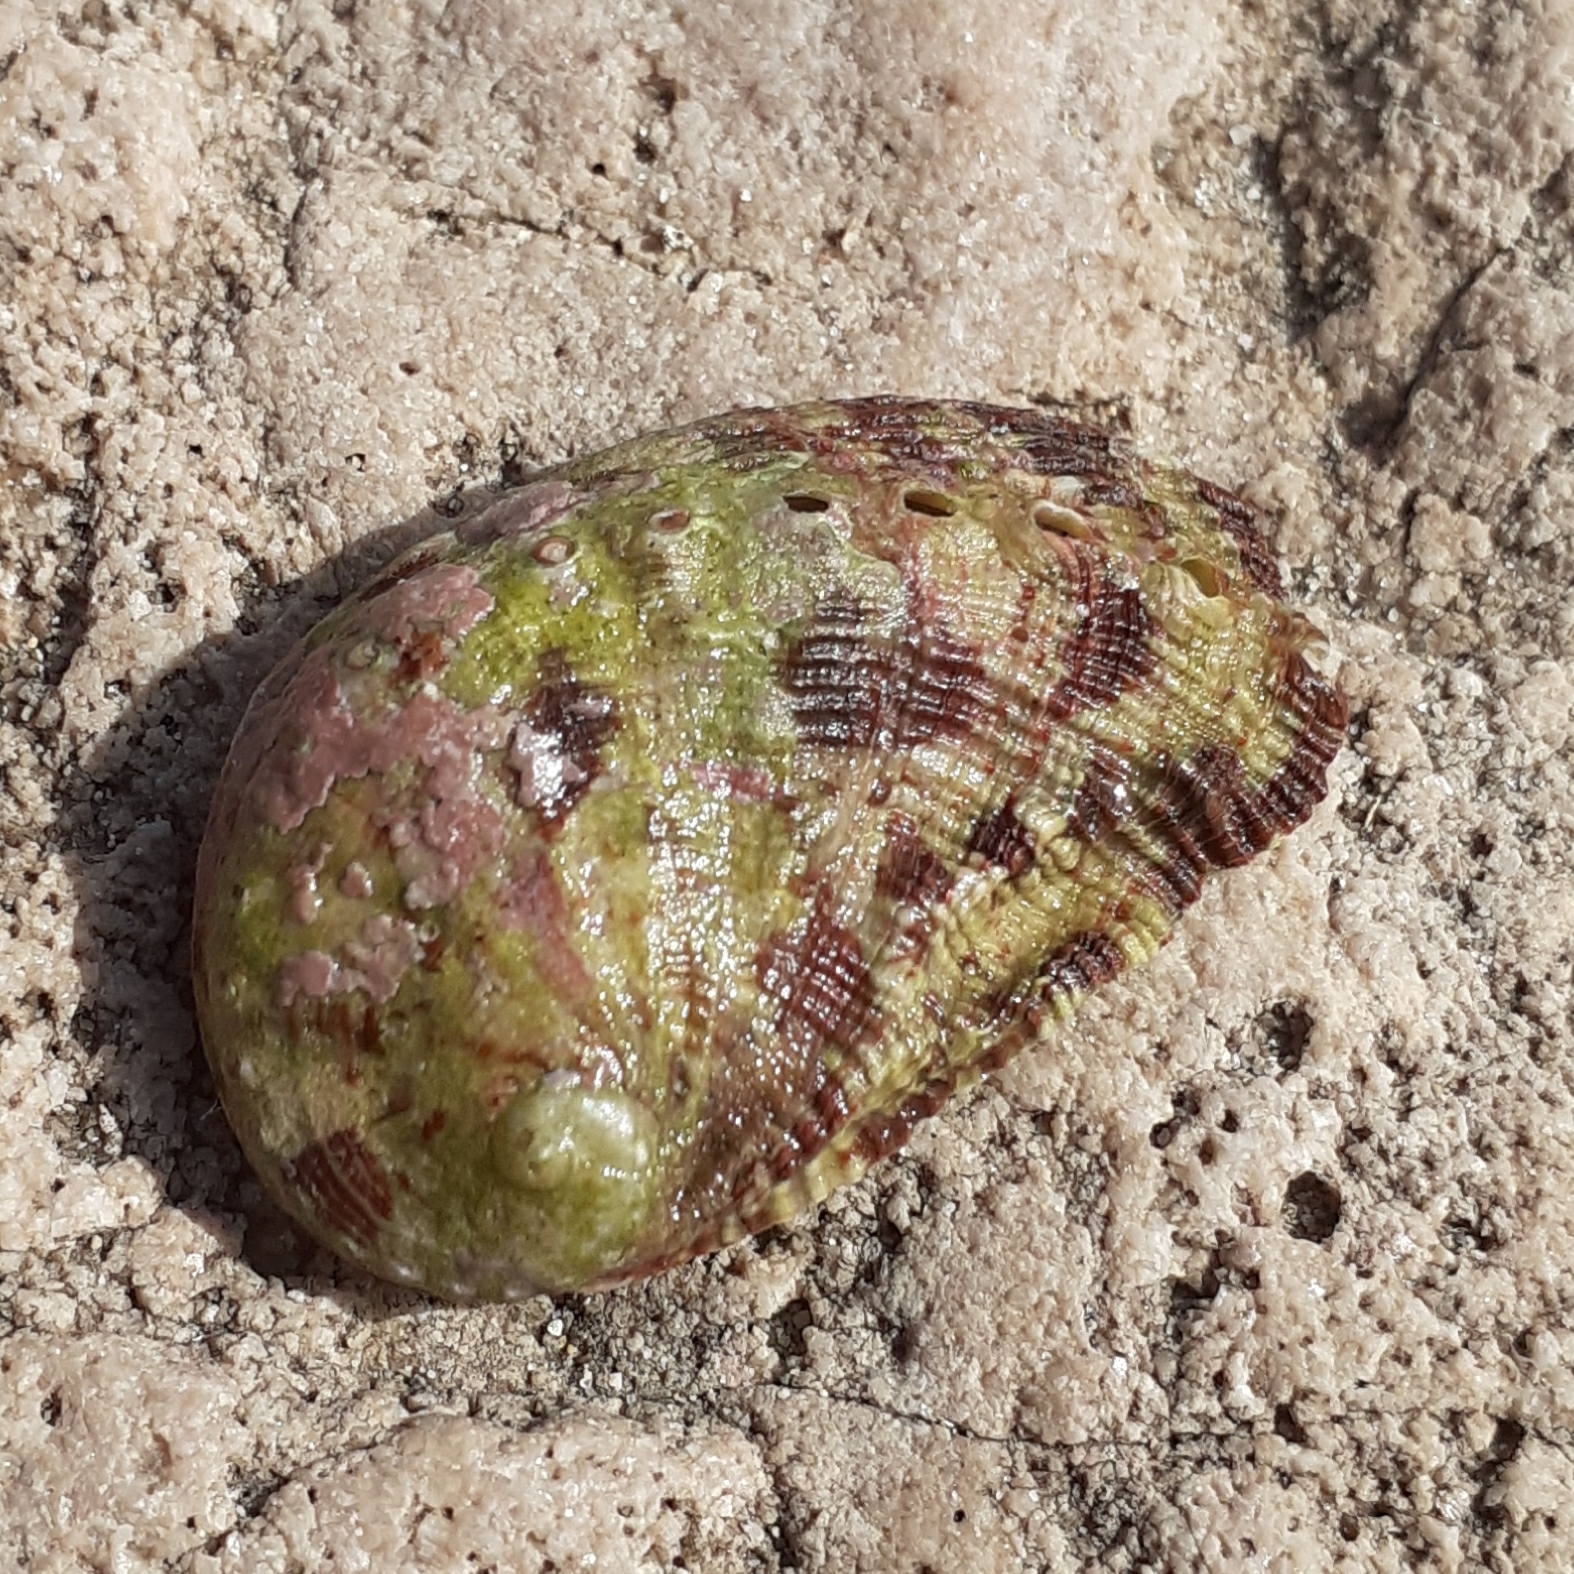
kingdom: Animalia
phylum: Mollusca
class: Gastropoda
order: Lepetellida
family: Haliotidae
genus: Haliotis
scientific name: Haliotis tuberculata
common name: Green ormer
